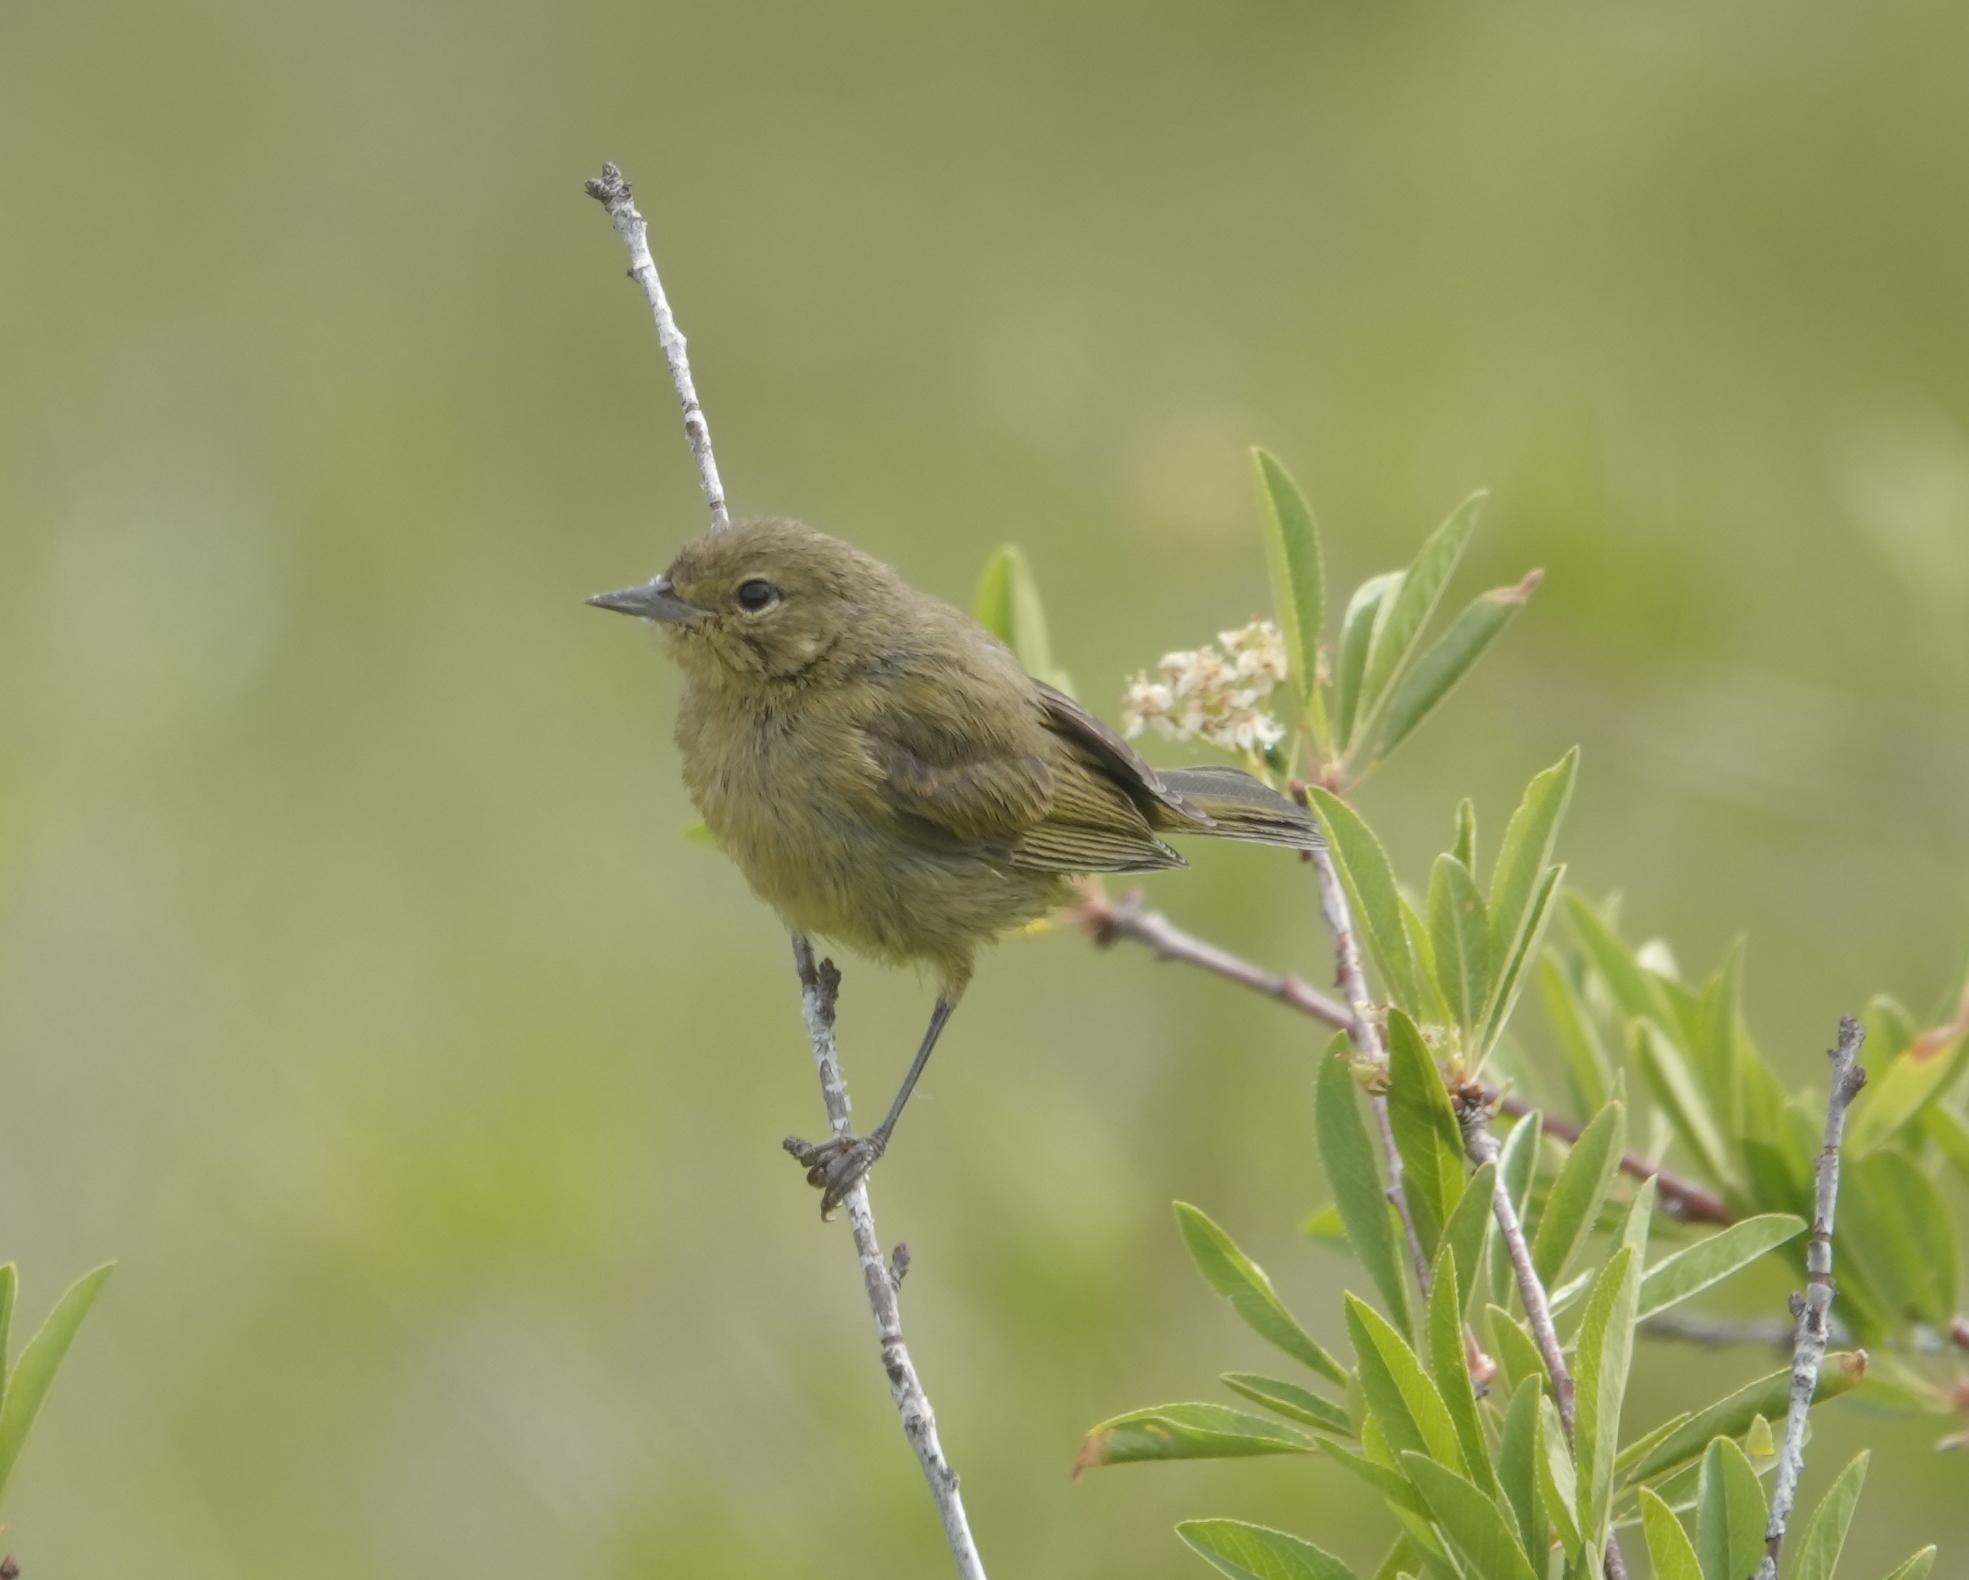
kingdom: Animalia
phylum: Chordata
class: Aves
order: Passeriformes
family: Parulidae
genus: Leiothlypis
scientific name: Leiothlypis celata
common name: Orange-crowned warbler
